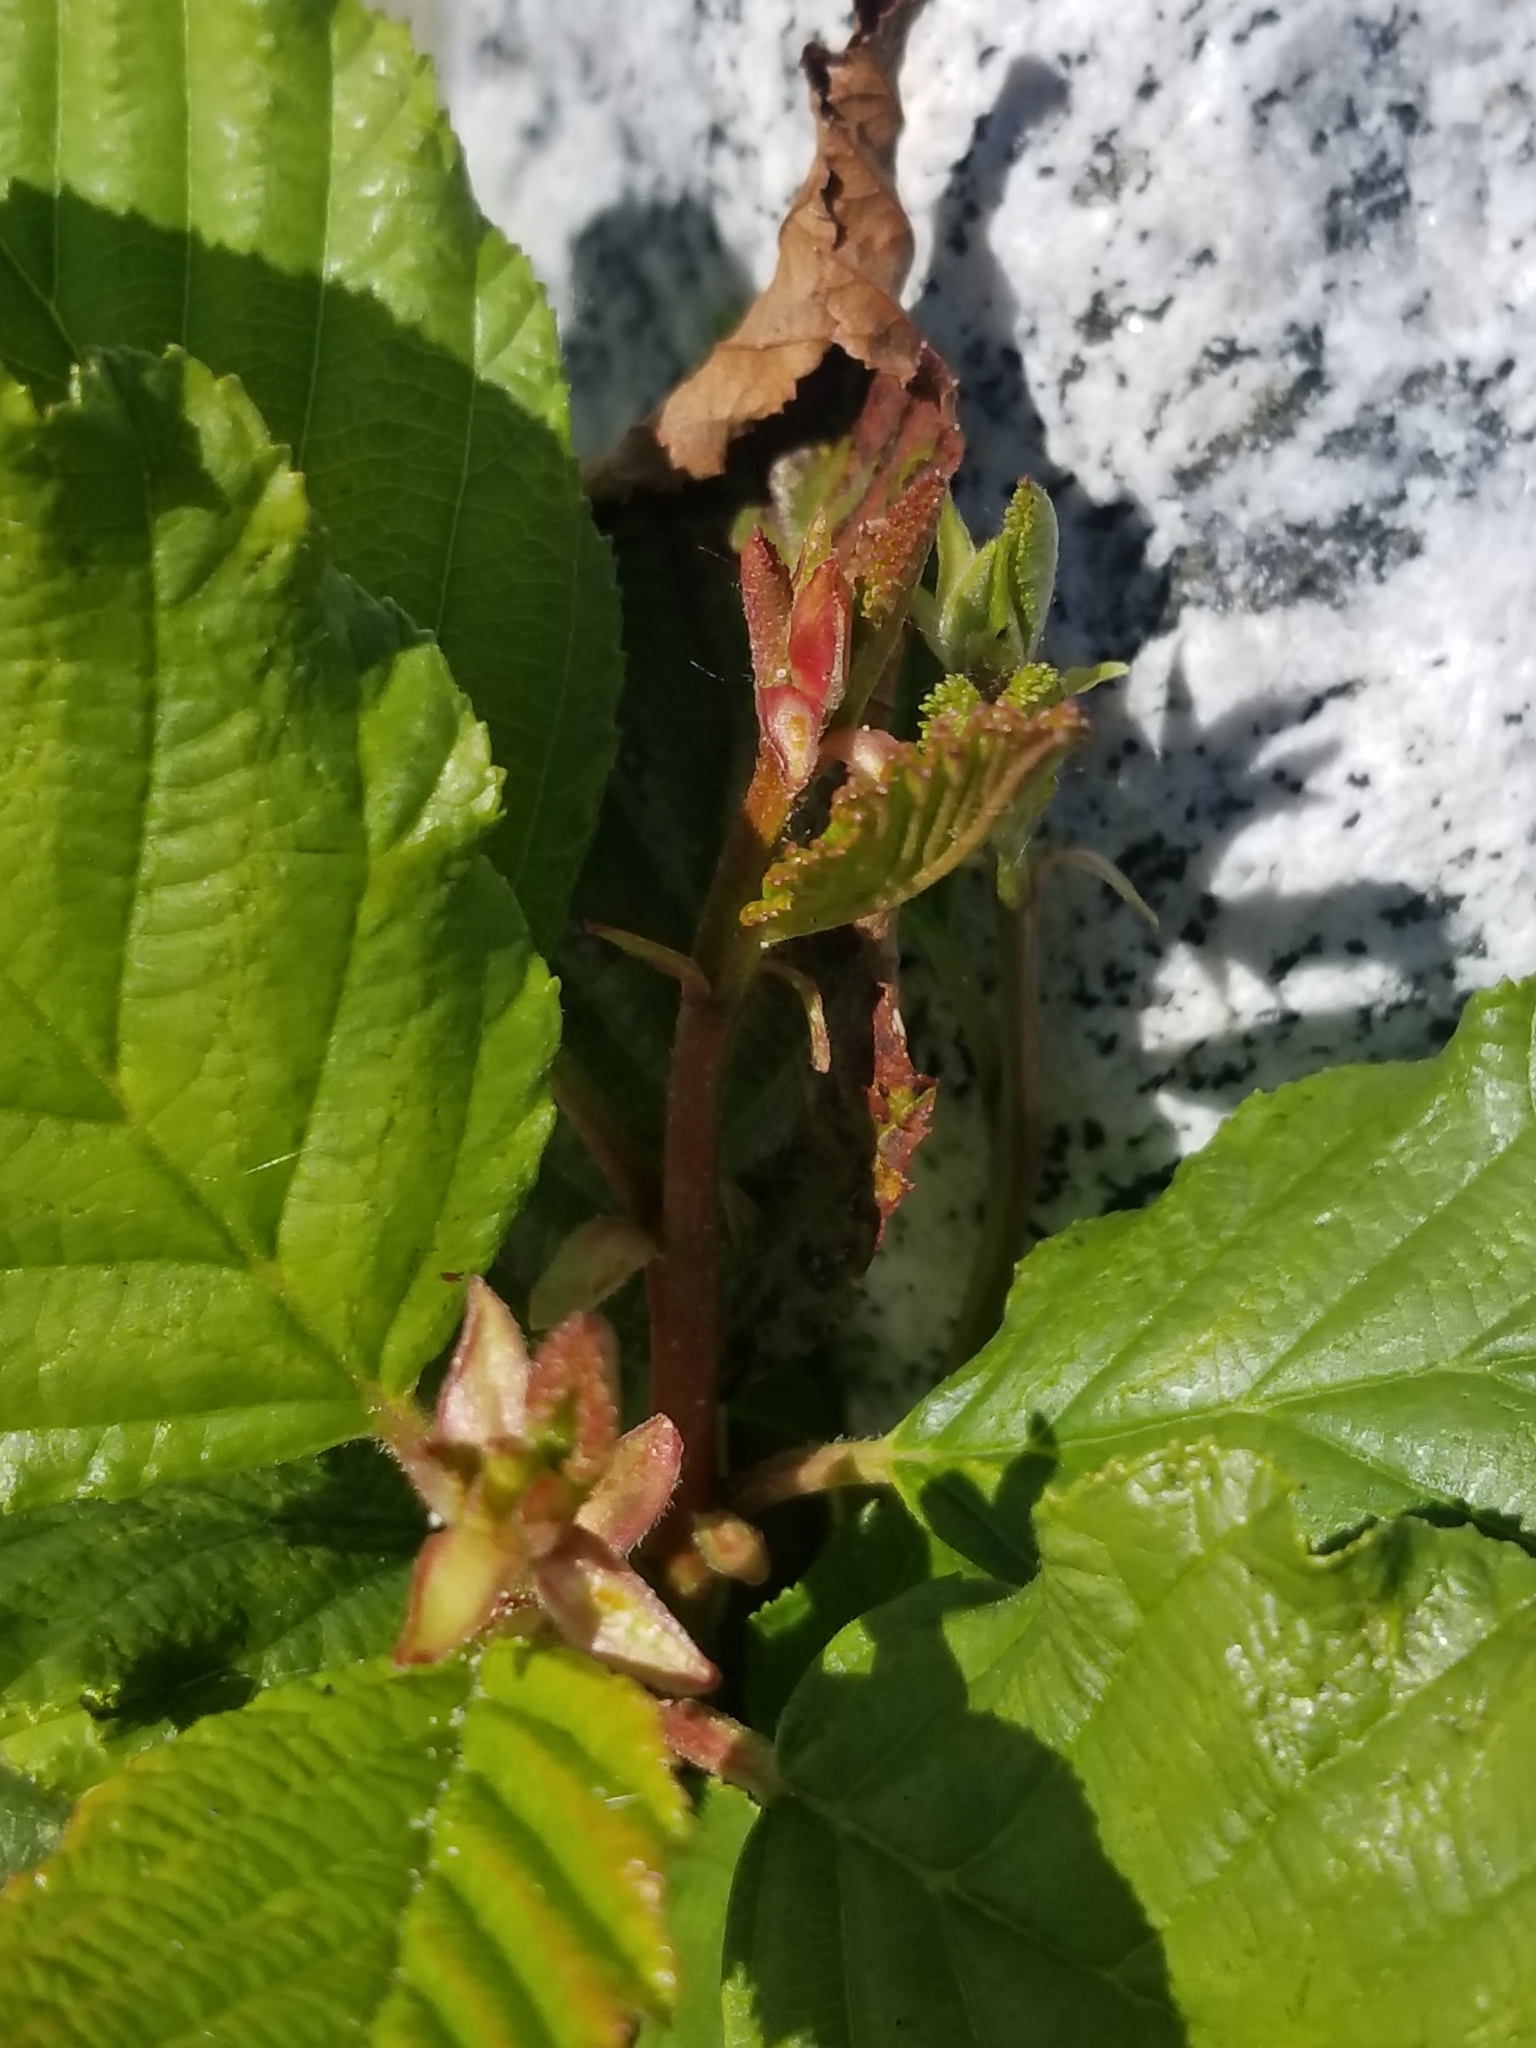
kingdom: Plantae
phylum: Tracheophyta
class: Magnoliopsida
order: Fagales
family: Betulaceae
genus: Alnus
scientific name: Alnus rhombifolia
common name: California alder
